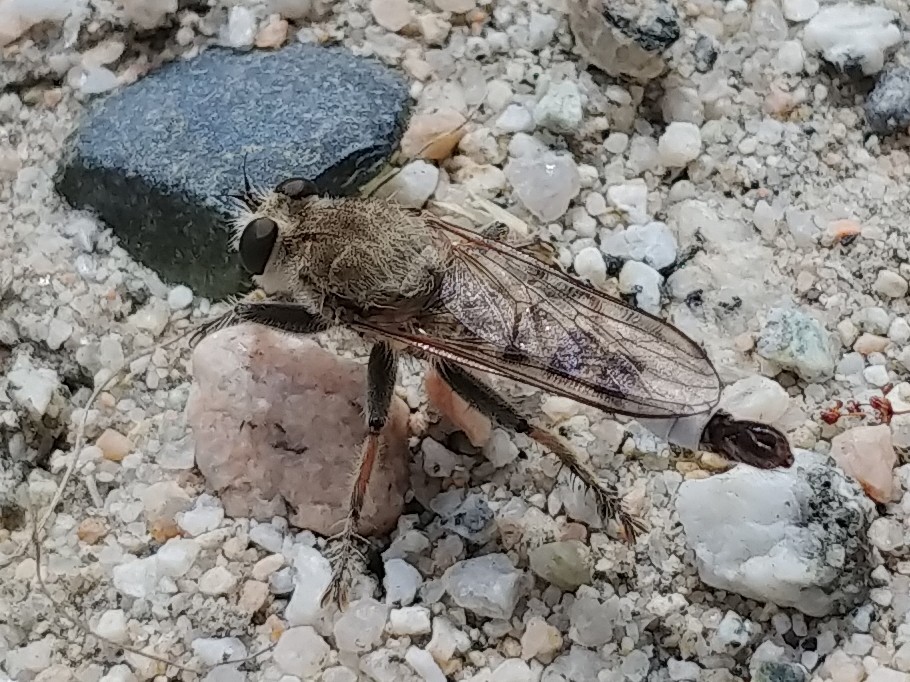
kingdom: Animalia
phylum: Arthropoda
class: Insecta
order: Diptera
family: Asilidae
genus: Efferia
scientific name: Efferia albibarbis
